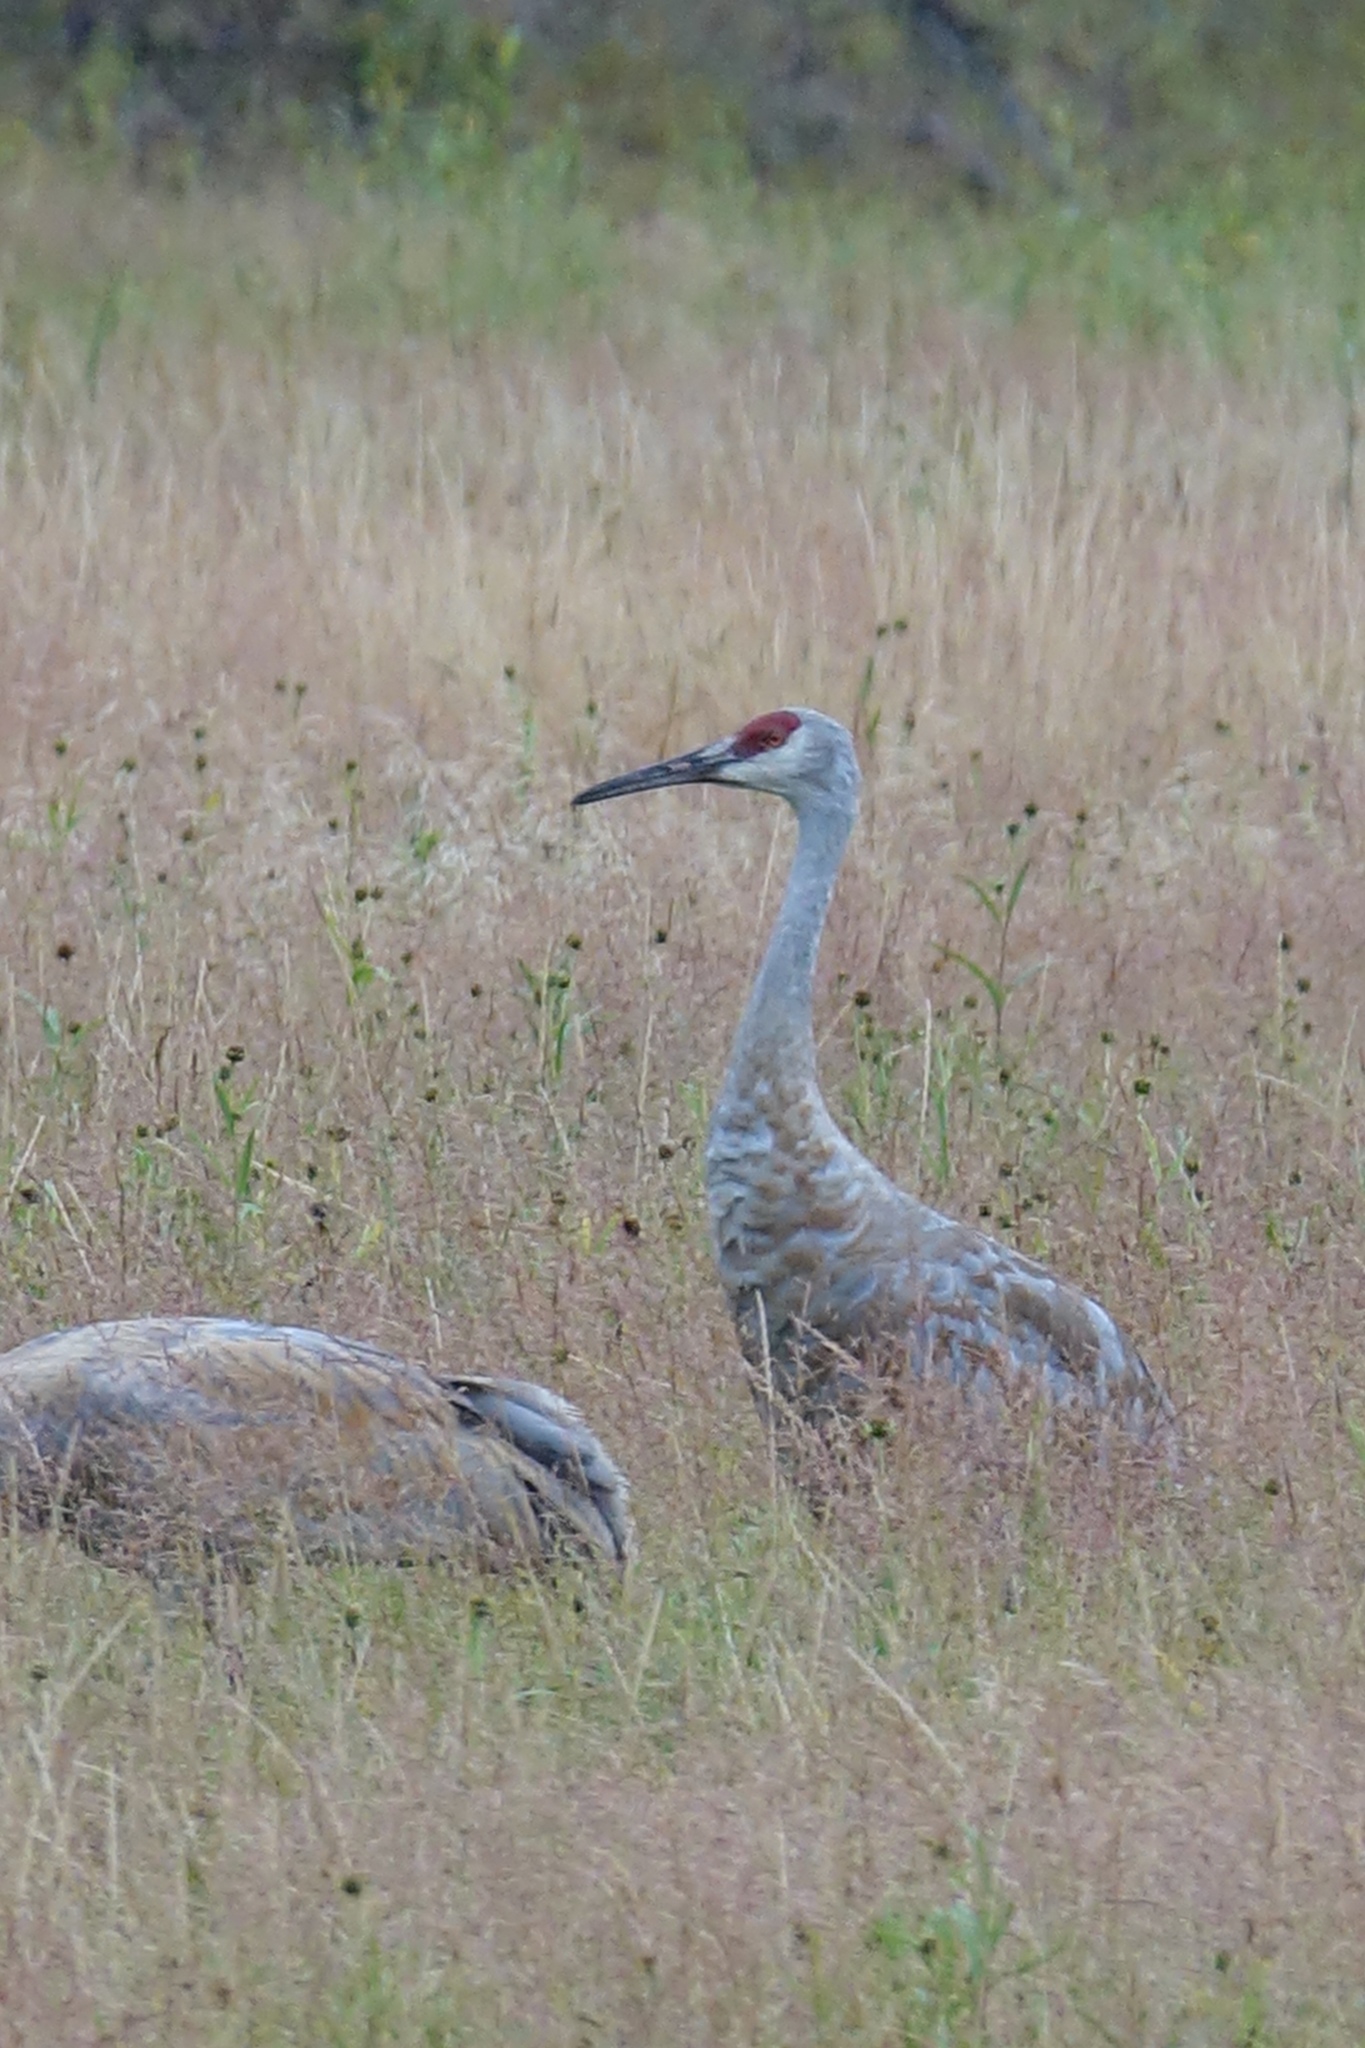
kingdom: Animalia
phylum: Chordata
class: Aves
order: Gruiformes
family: Gruidae
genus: Grus
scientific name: Grus canadensis
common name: Sandhill crane
